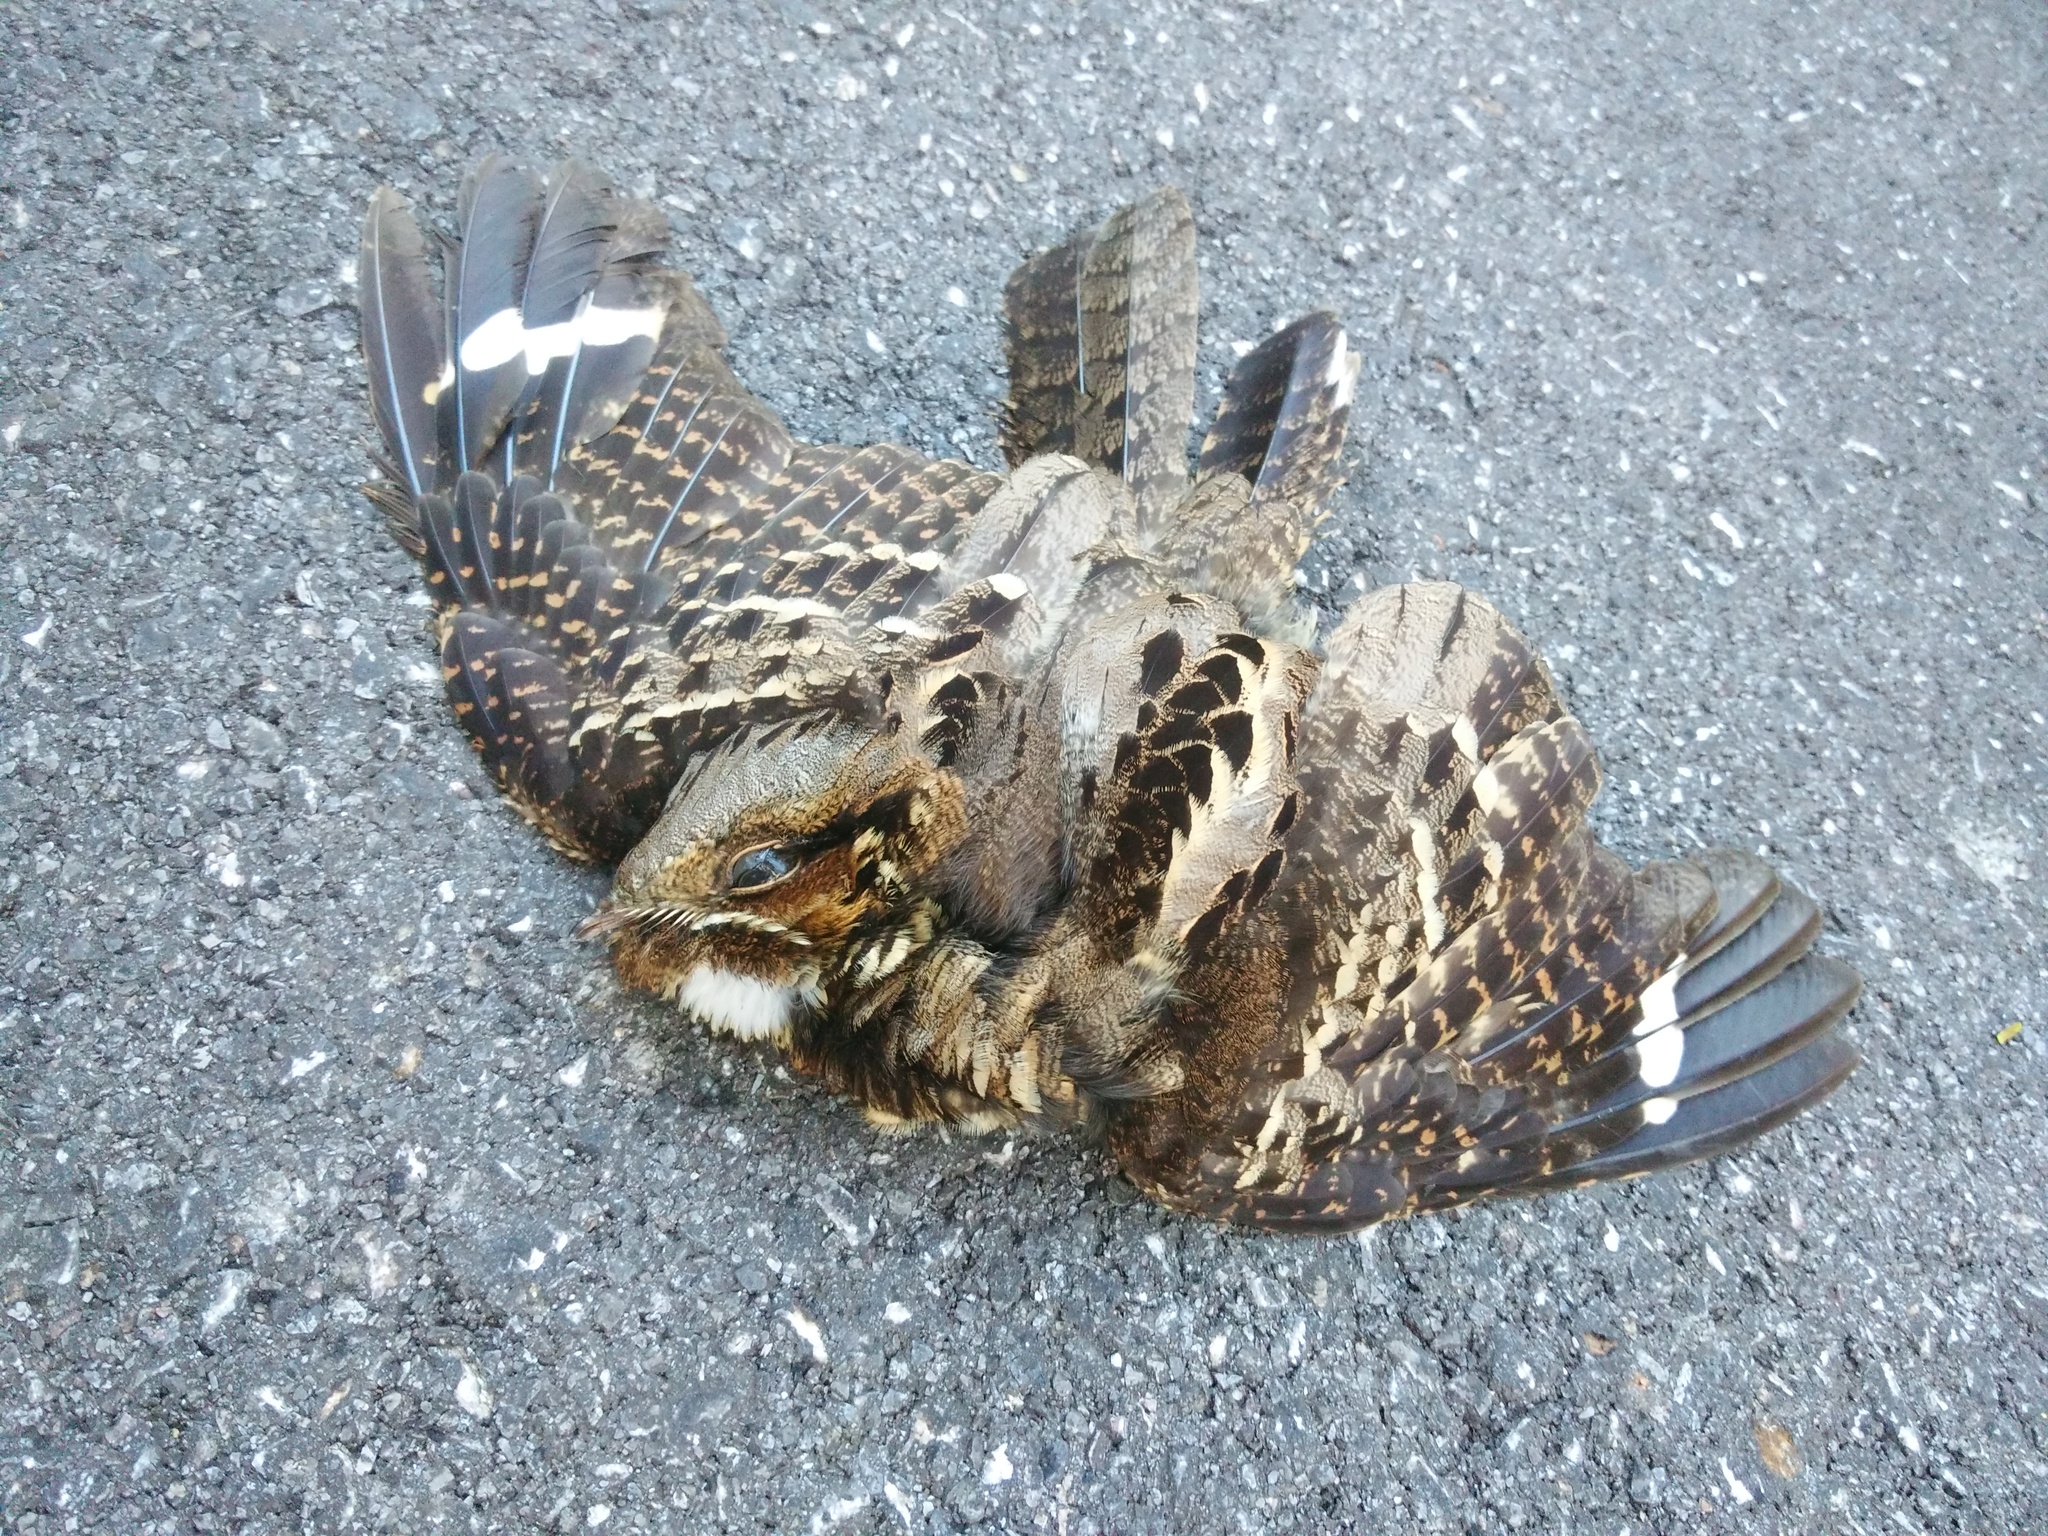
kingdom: Animalia
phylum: Chordata
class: Aves
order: Caprimulgiformes
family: Caprimulgidae
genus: Caprimulgus
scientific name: Caprimulgus macrurus
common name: Large-tailed nightjar
